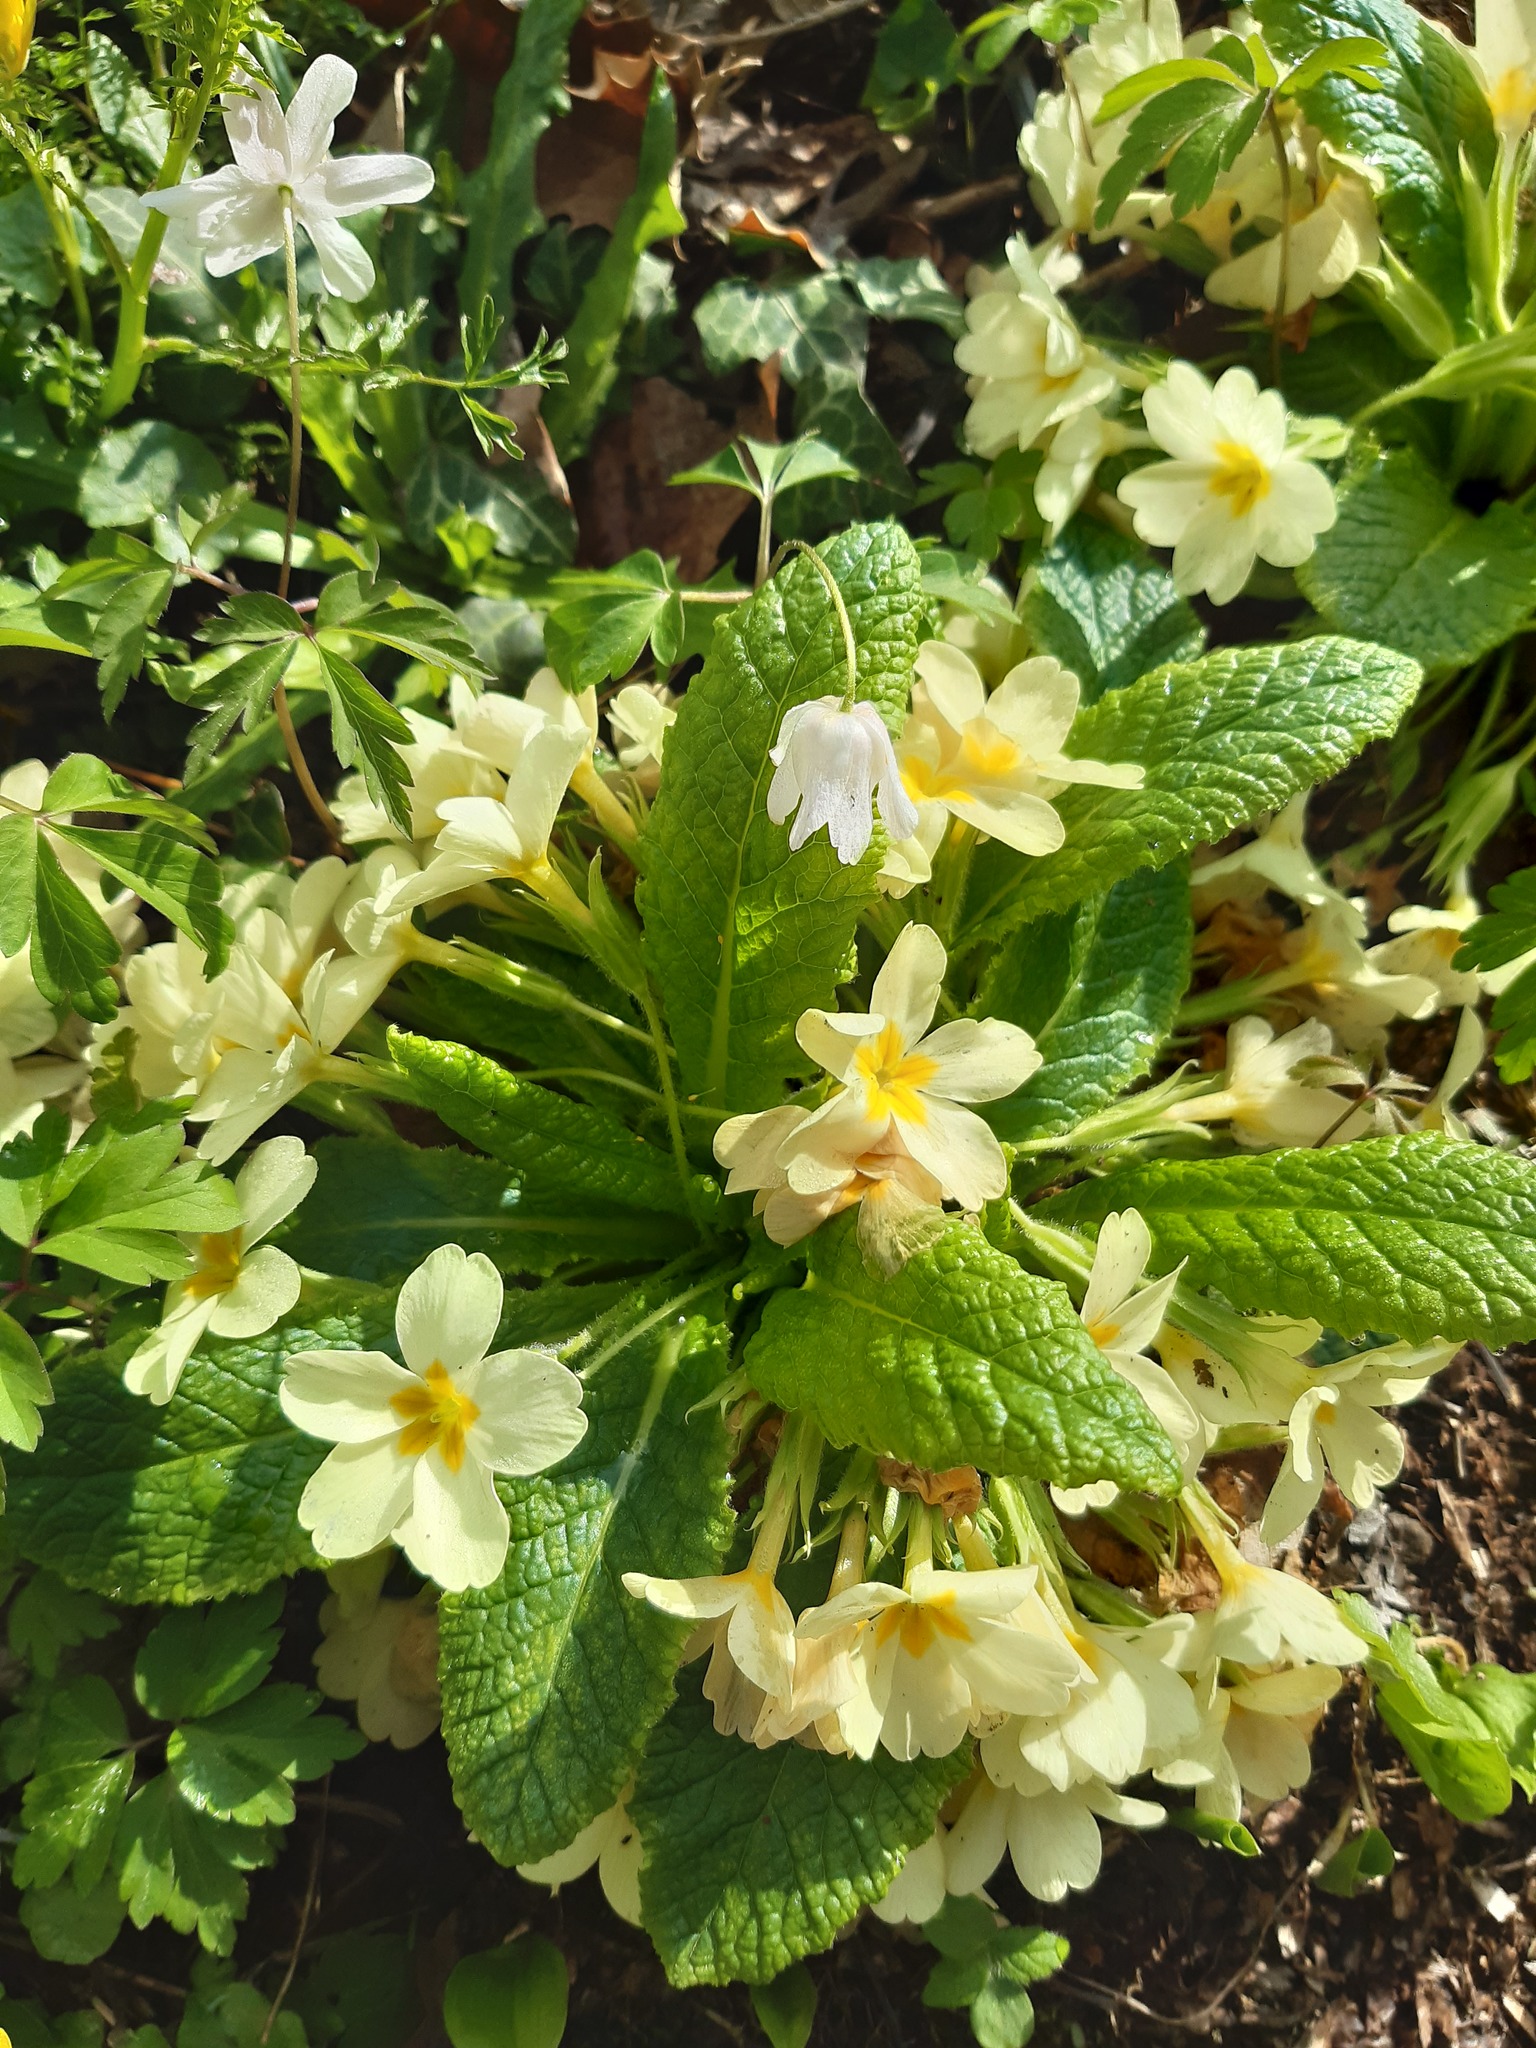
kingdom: Plantae
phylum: Tracheophyta
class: Magnoliopsida
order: Ericales
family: Primulaceae
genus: Primula
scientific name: Primula vulgaris
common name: Primrose
